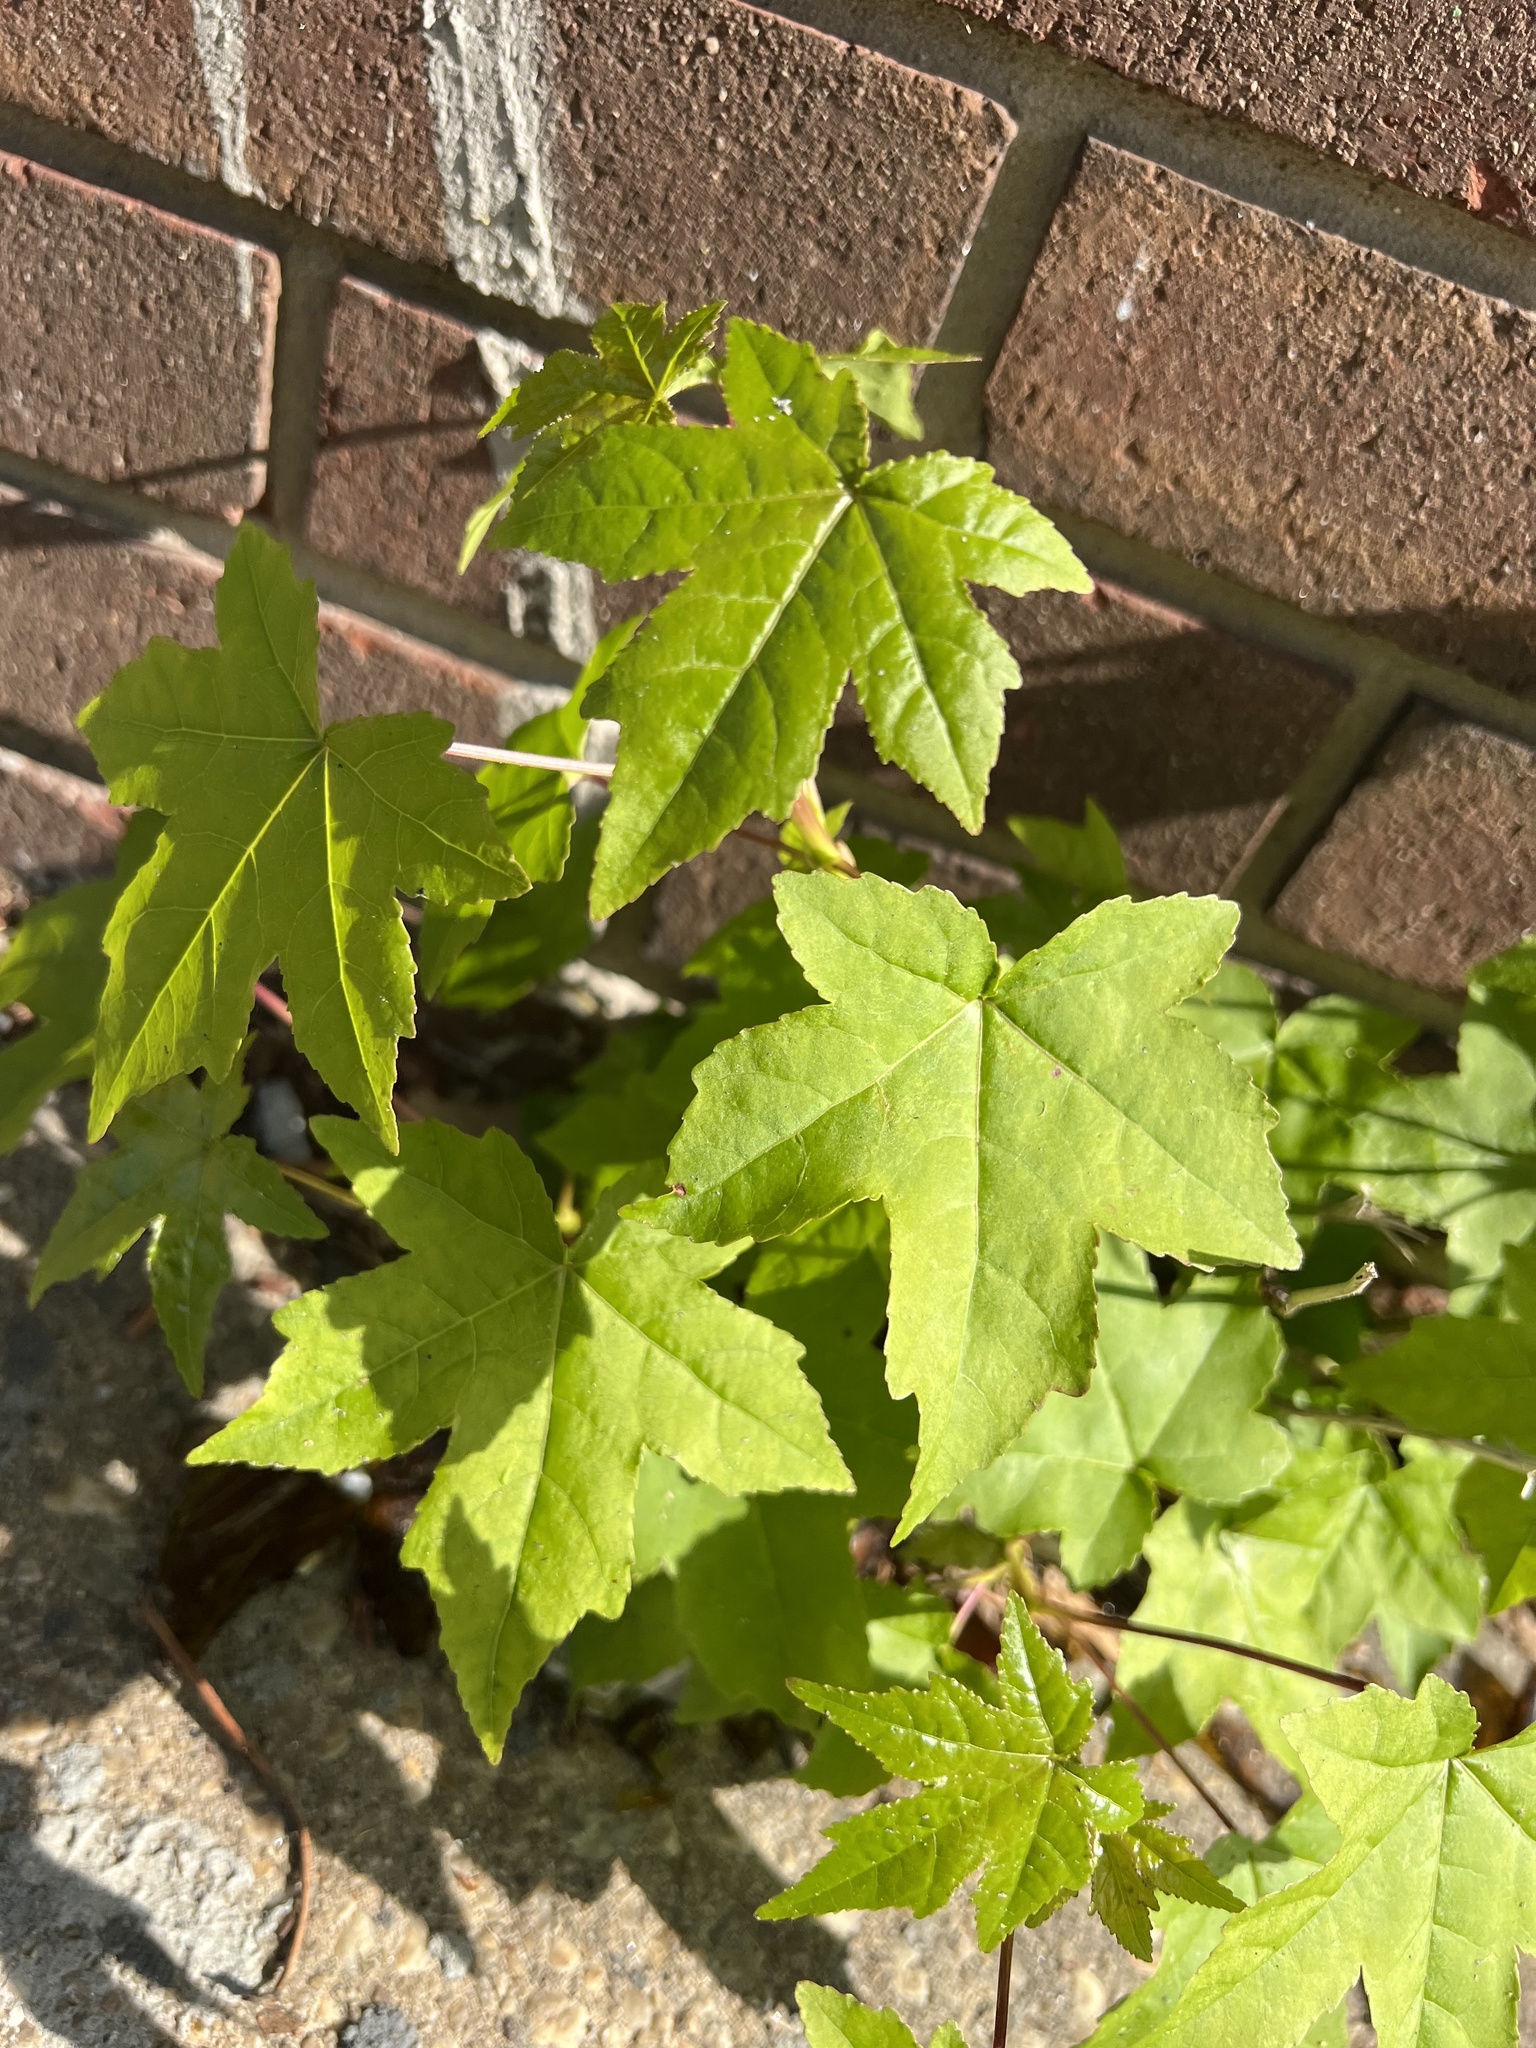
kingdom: Plantae
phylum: Tracheophyta
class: Magnoliopsida
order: Saxifragales
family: Altingiaceae
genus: Liquidambar
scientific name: Liquidambar styraciflua
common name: Sweet gum
